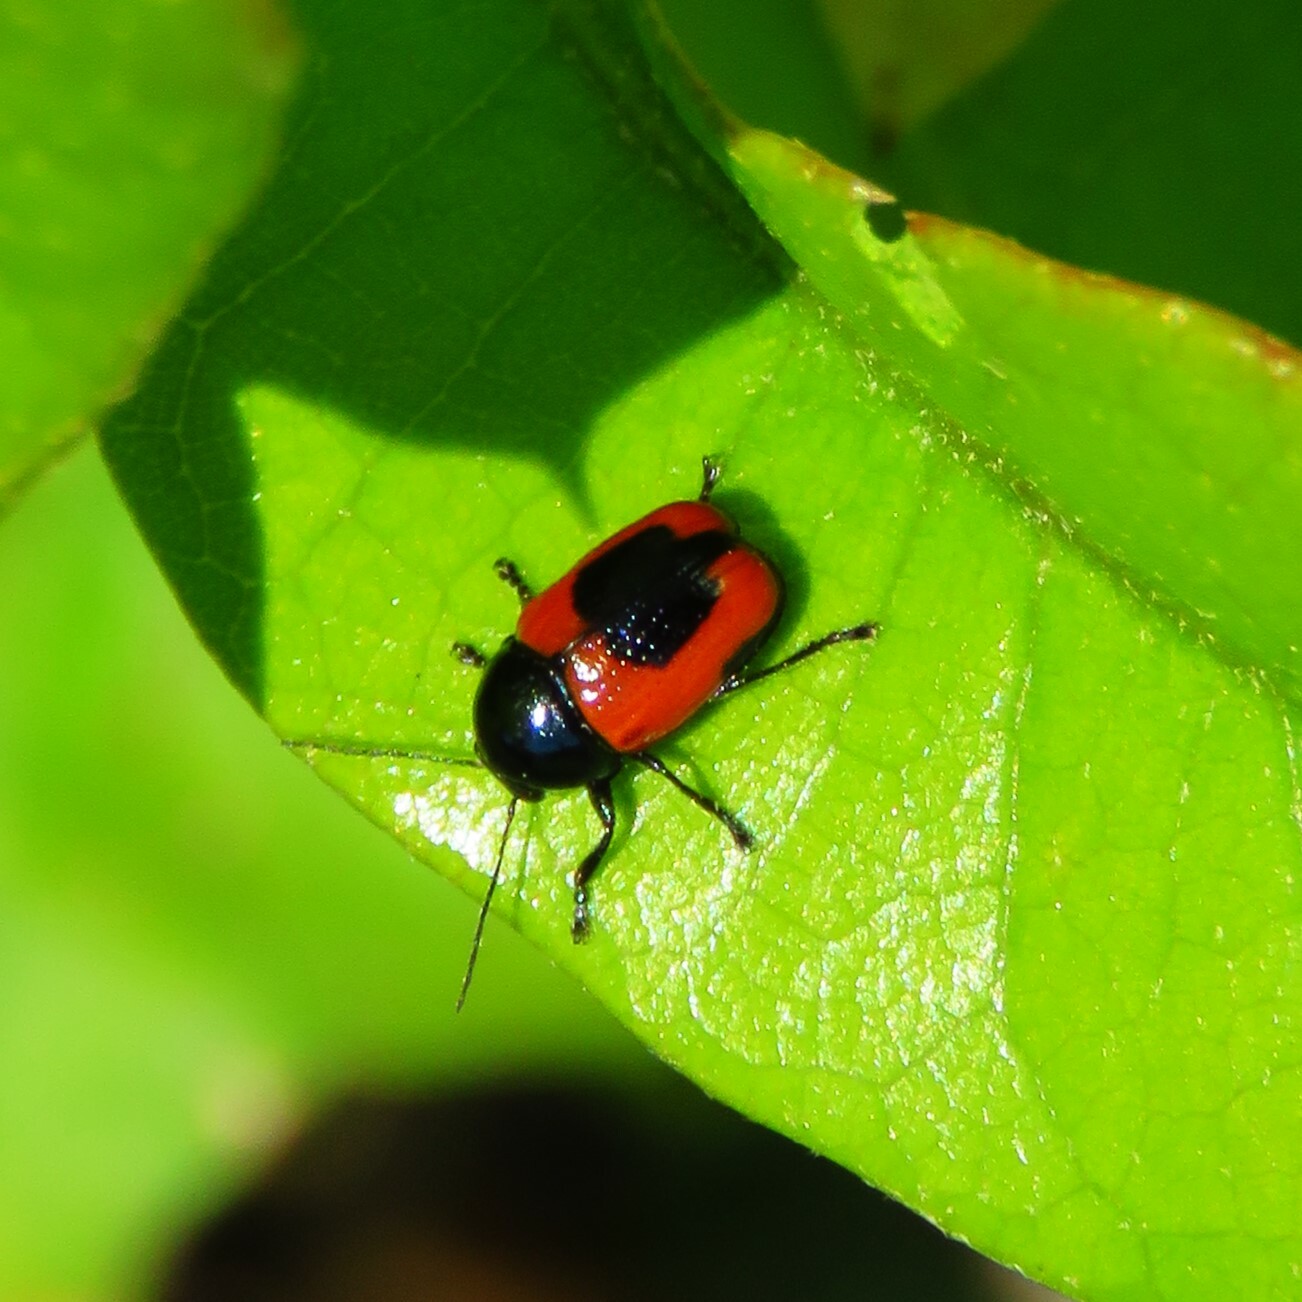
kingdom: Animalia
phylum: Arthropoda
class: Insecta
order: Coleoptera
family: Chrysomelidae
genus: Cryptocephalus
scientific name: Cryptocephalus notatus
